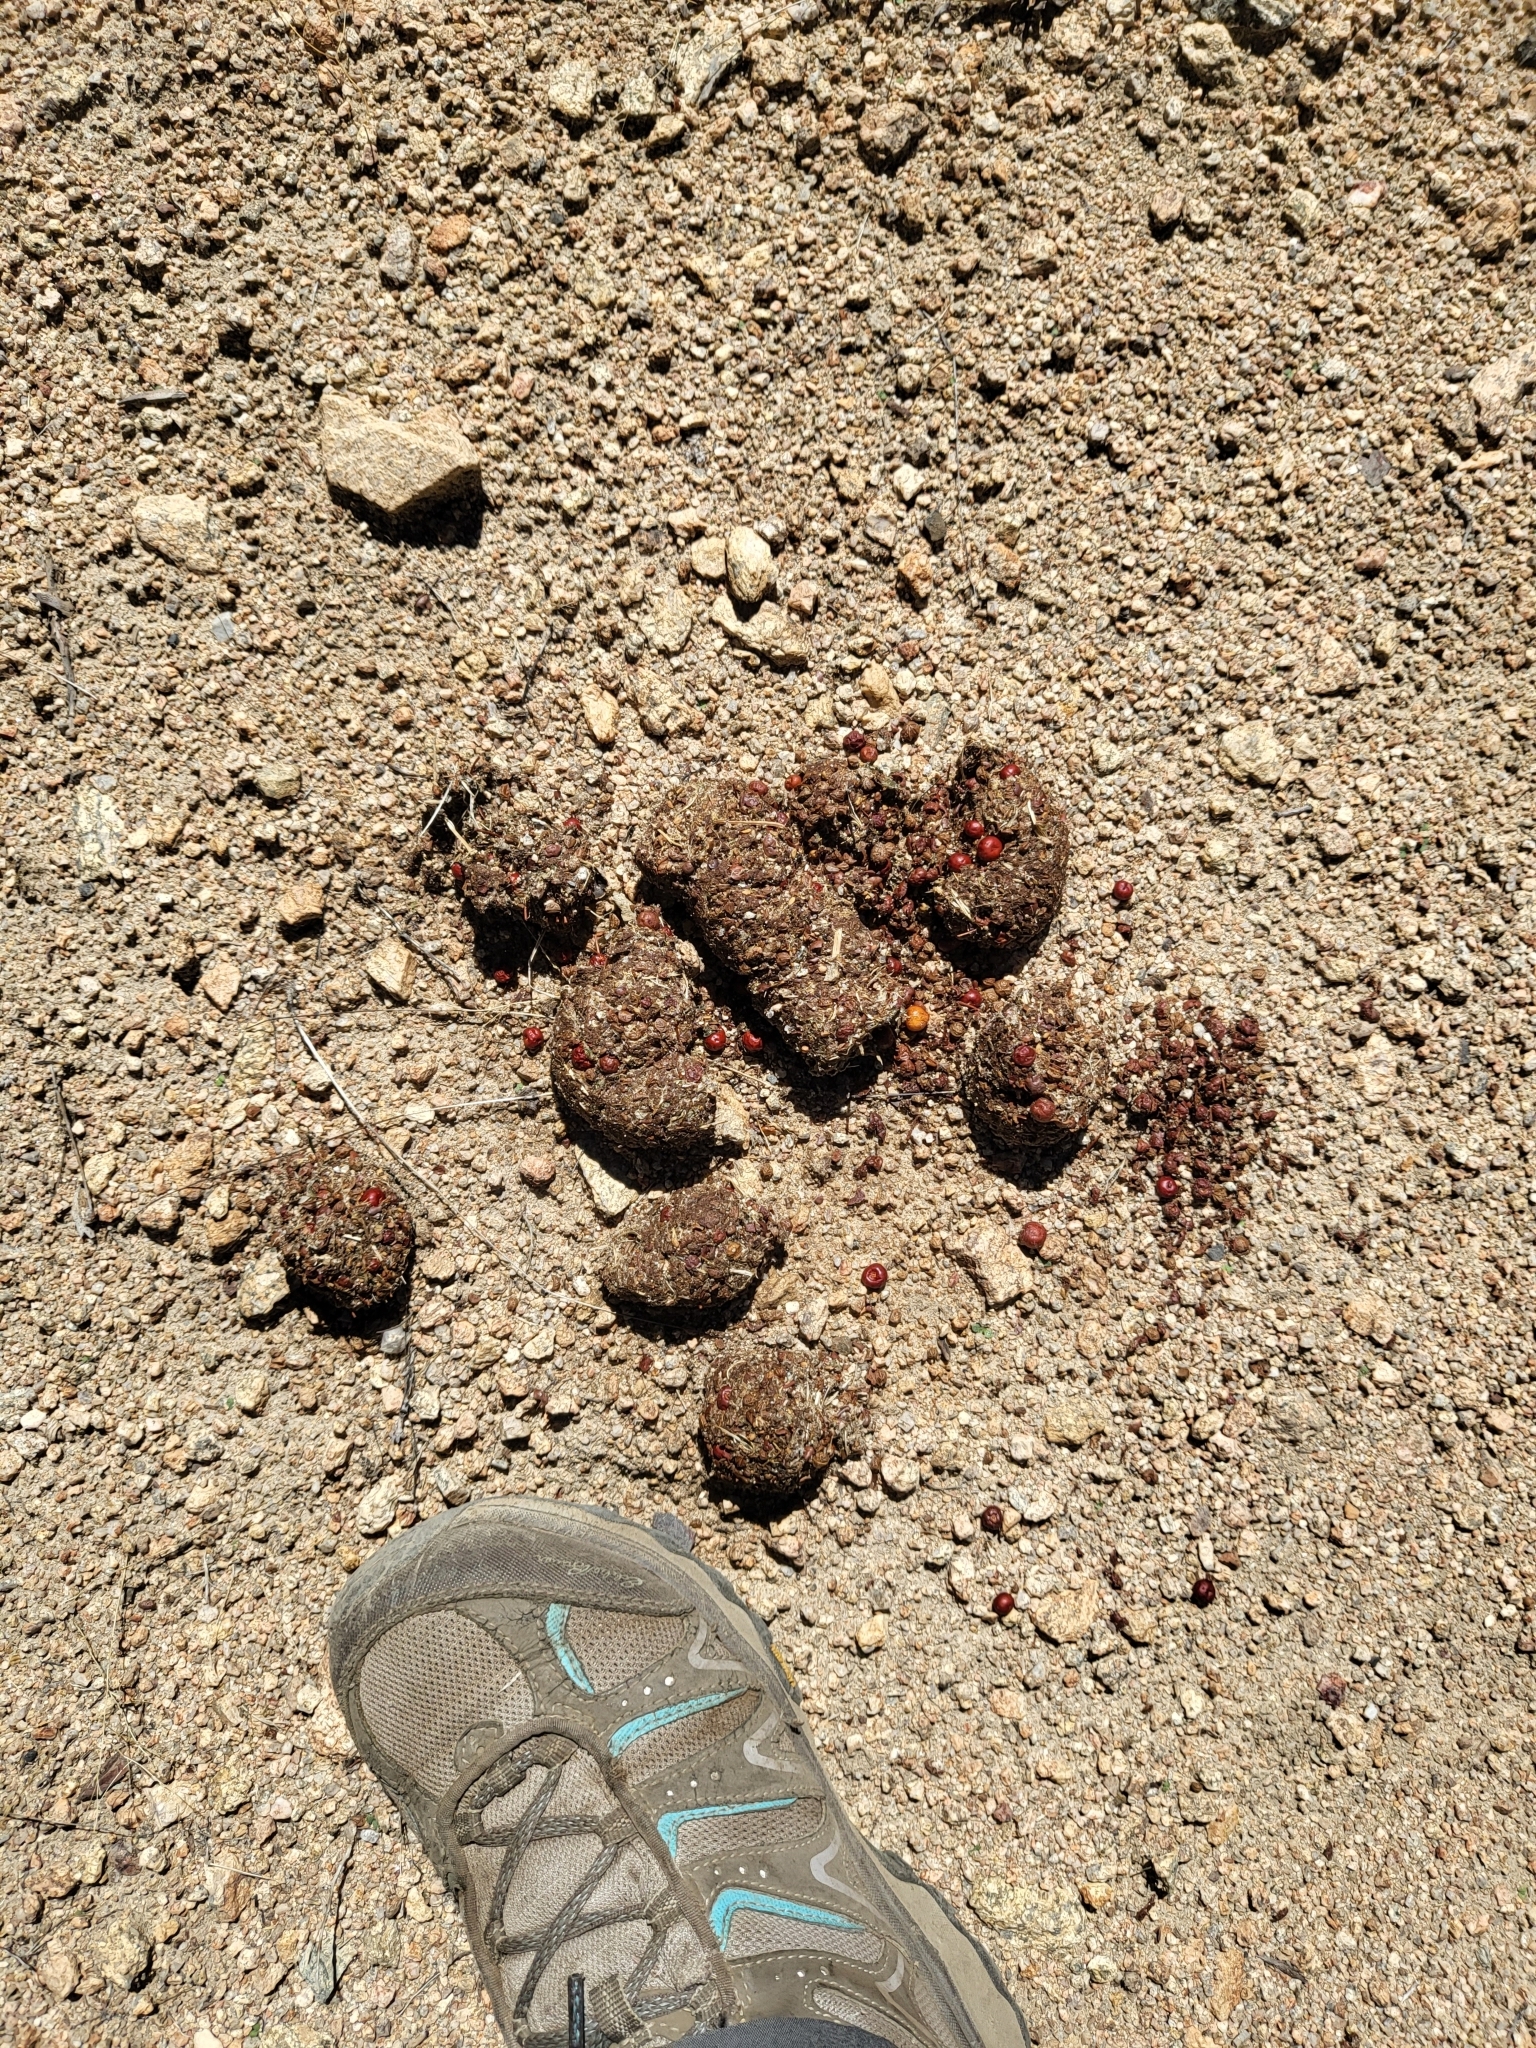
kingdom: Animalia
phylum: Chordata
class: Mammalia
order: Carnivora
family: Ursidae
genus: Ursus
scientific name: Ursus americanus
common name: American black bear
